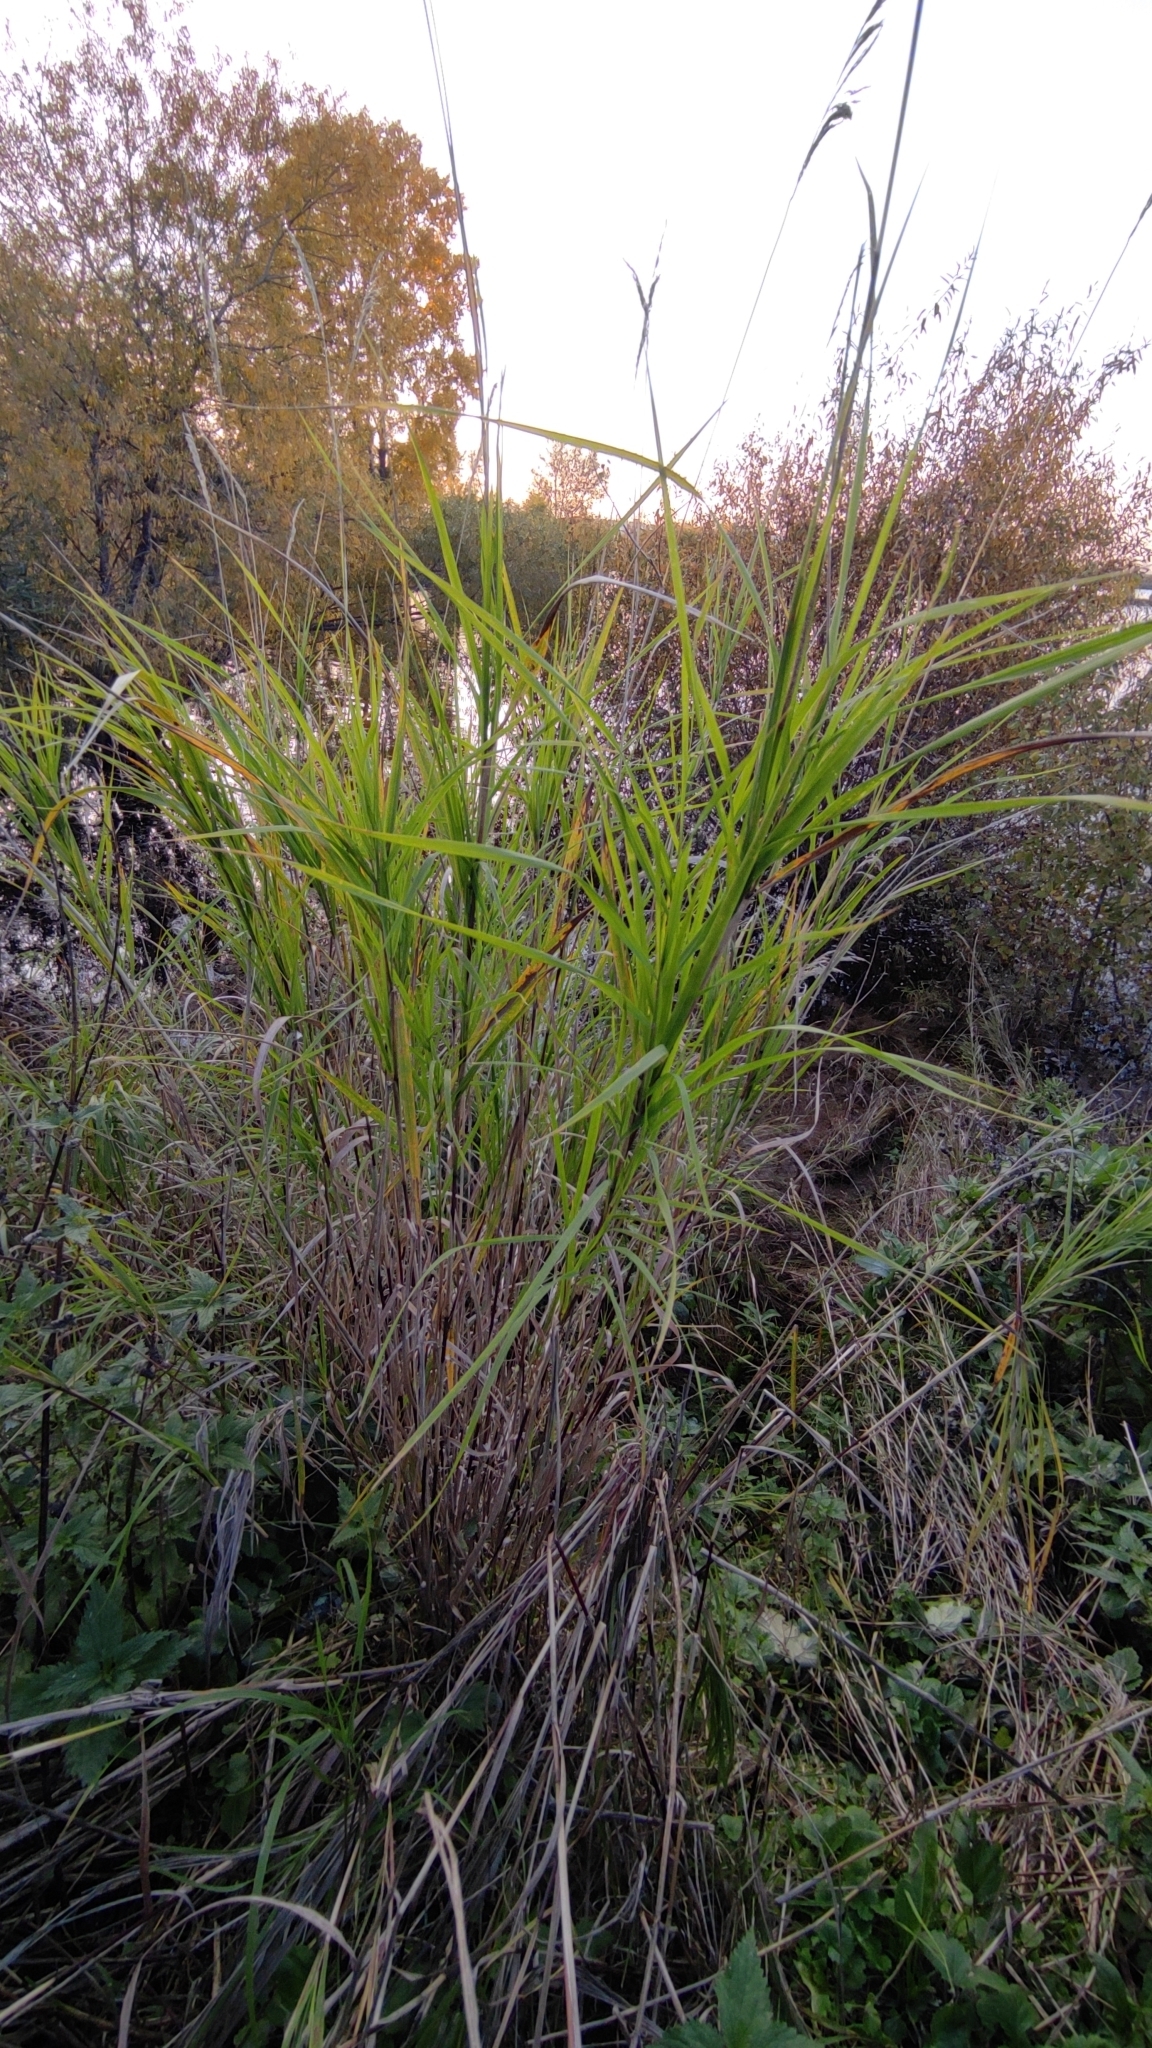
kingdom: Plantae
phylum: Tracheophyta
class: Liliopsida
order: Poales
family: Poaceae
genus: Calamagrostis
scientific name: Calamagrostis purpurea
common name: Scandinavian small-reed
